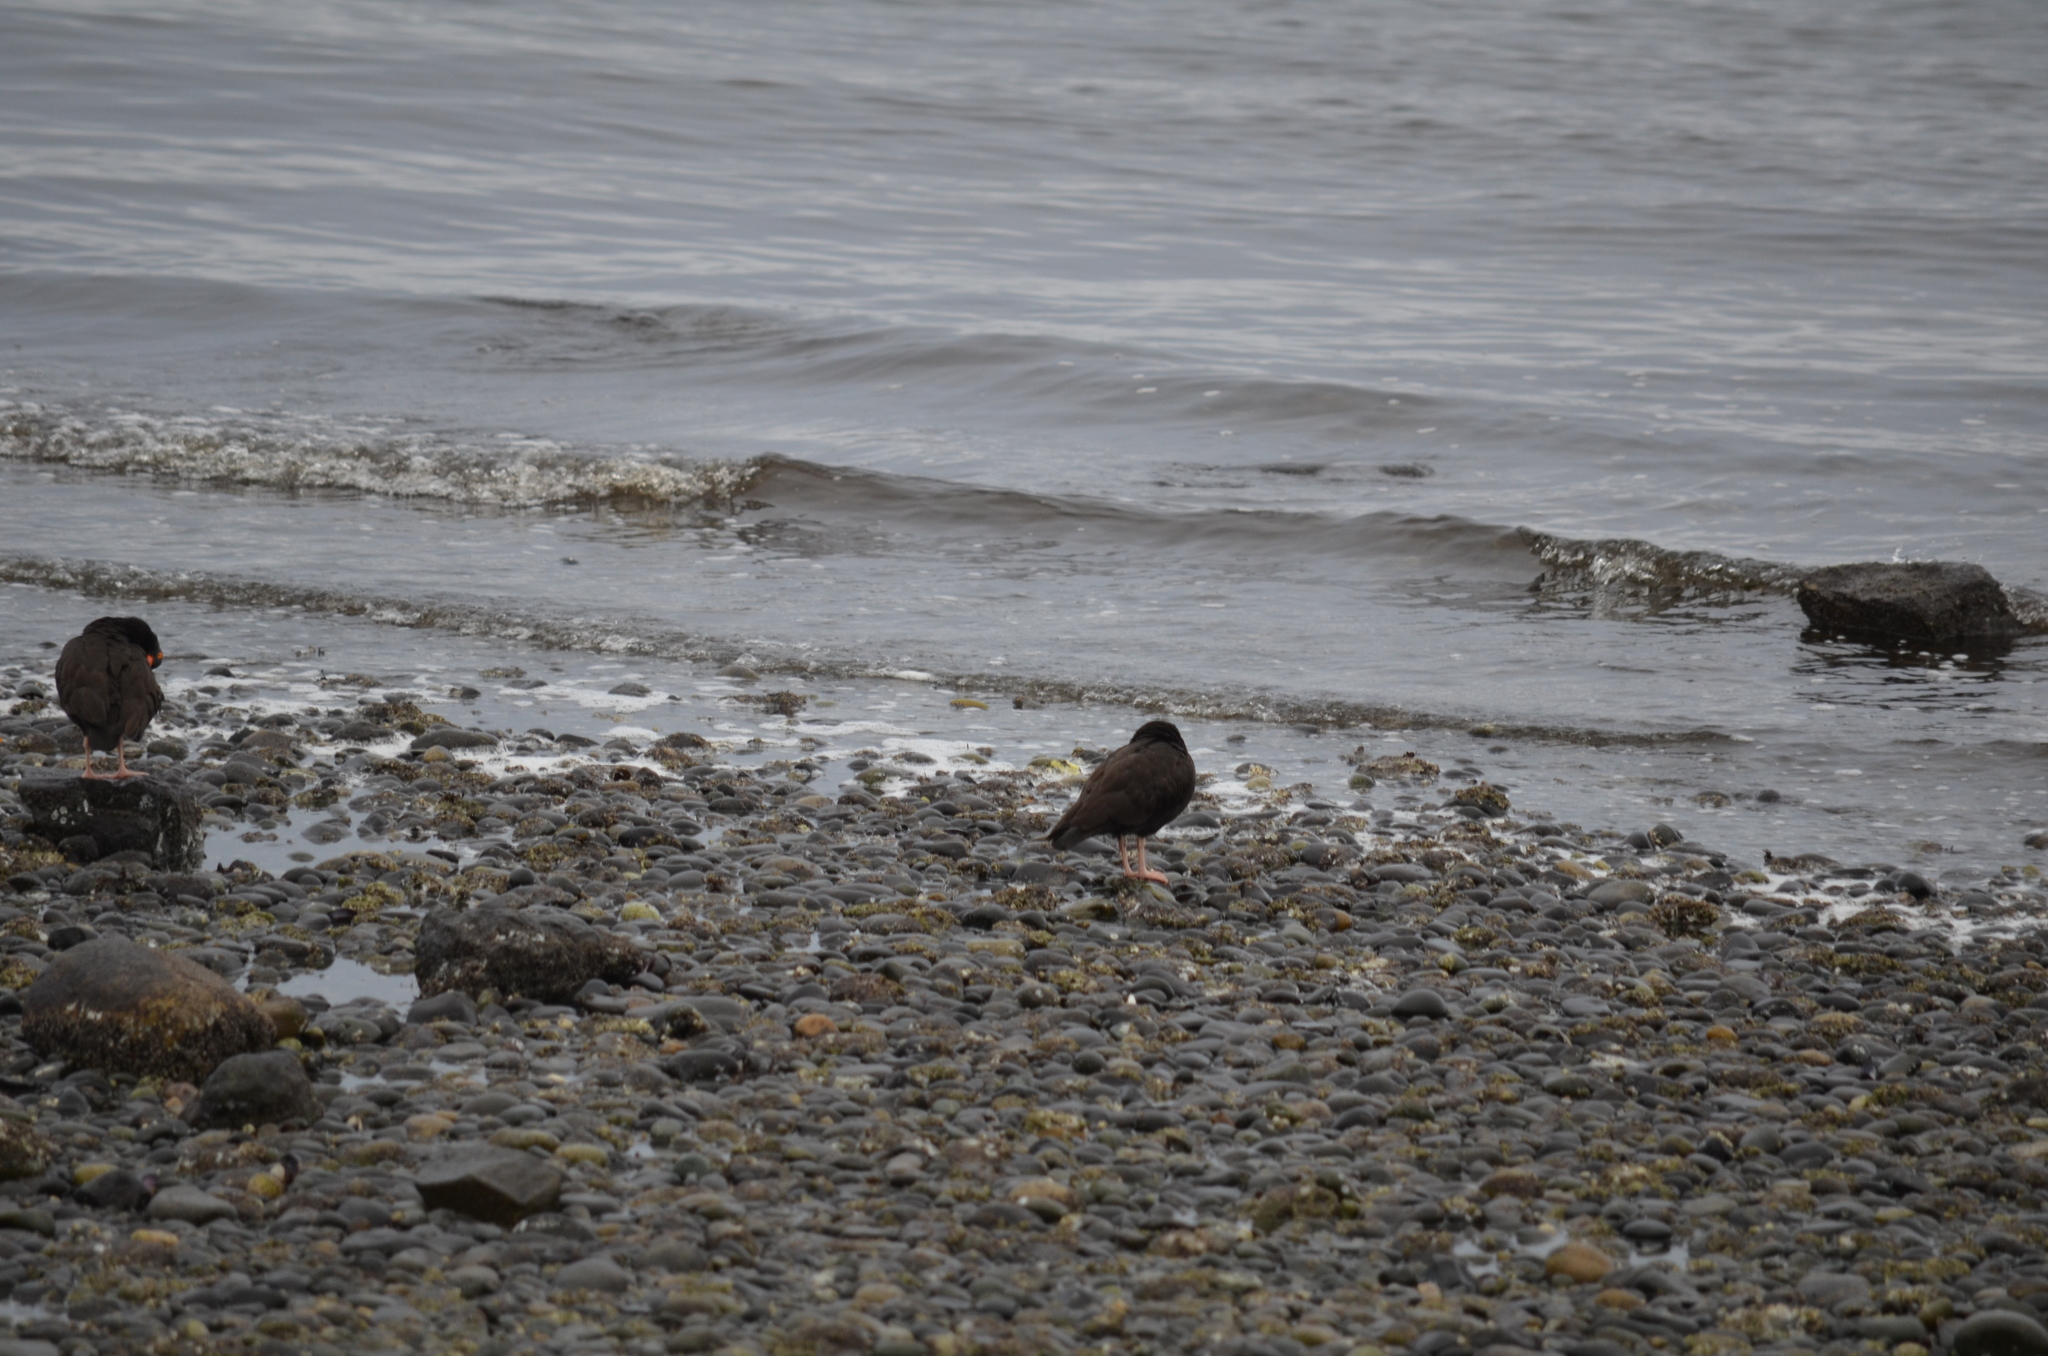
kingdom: Animalia
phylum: Chordata
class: Aves
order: Charadriiformes
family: Haematopodidae
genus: Haematopus
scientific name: Haematopus bachmani
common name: Black oystercatcher
